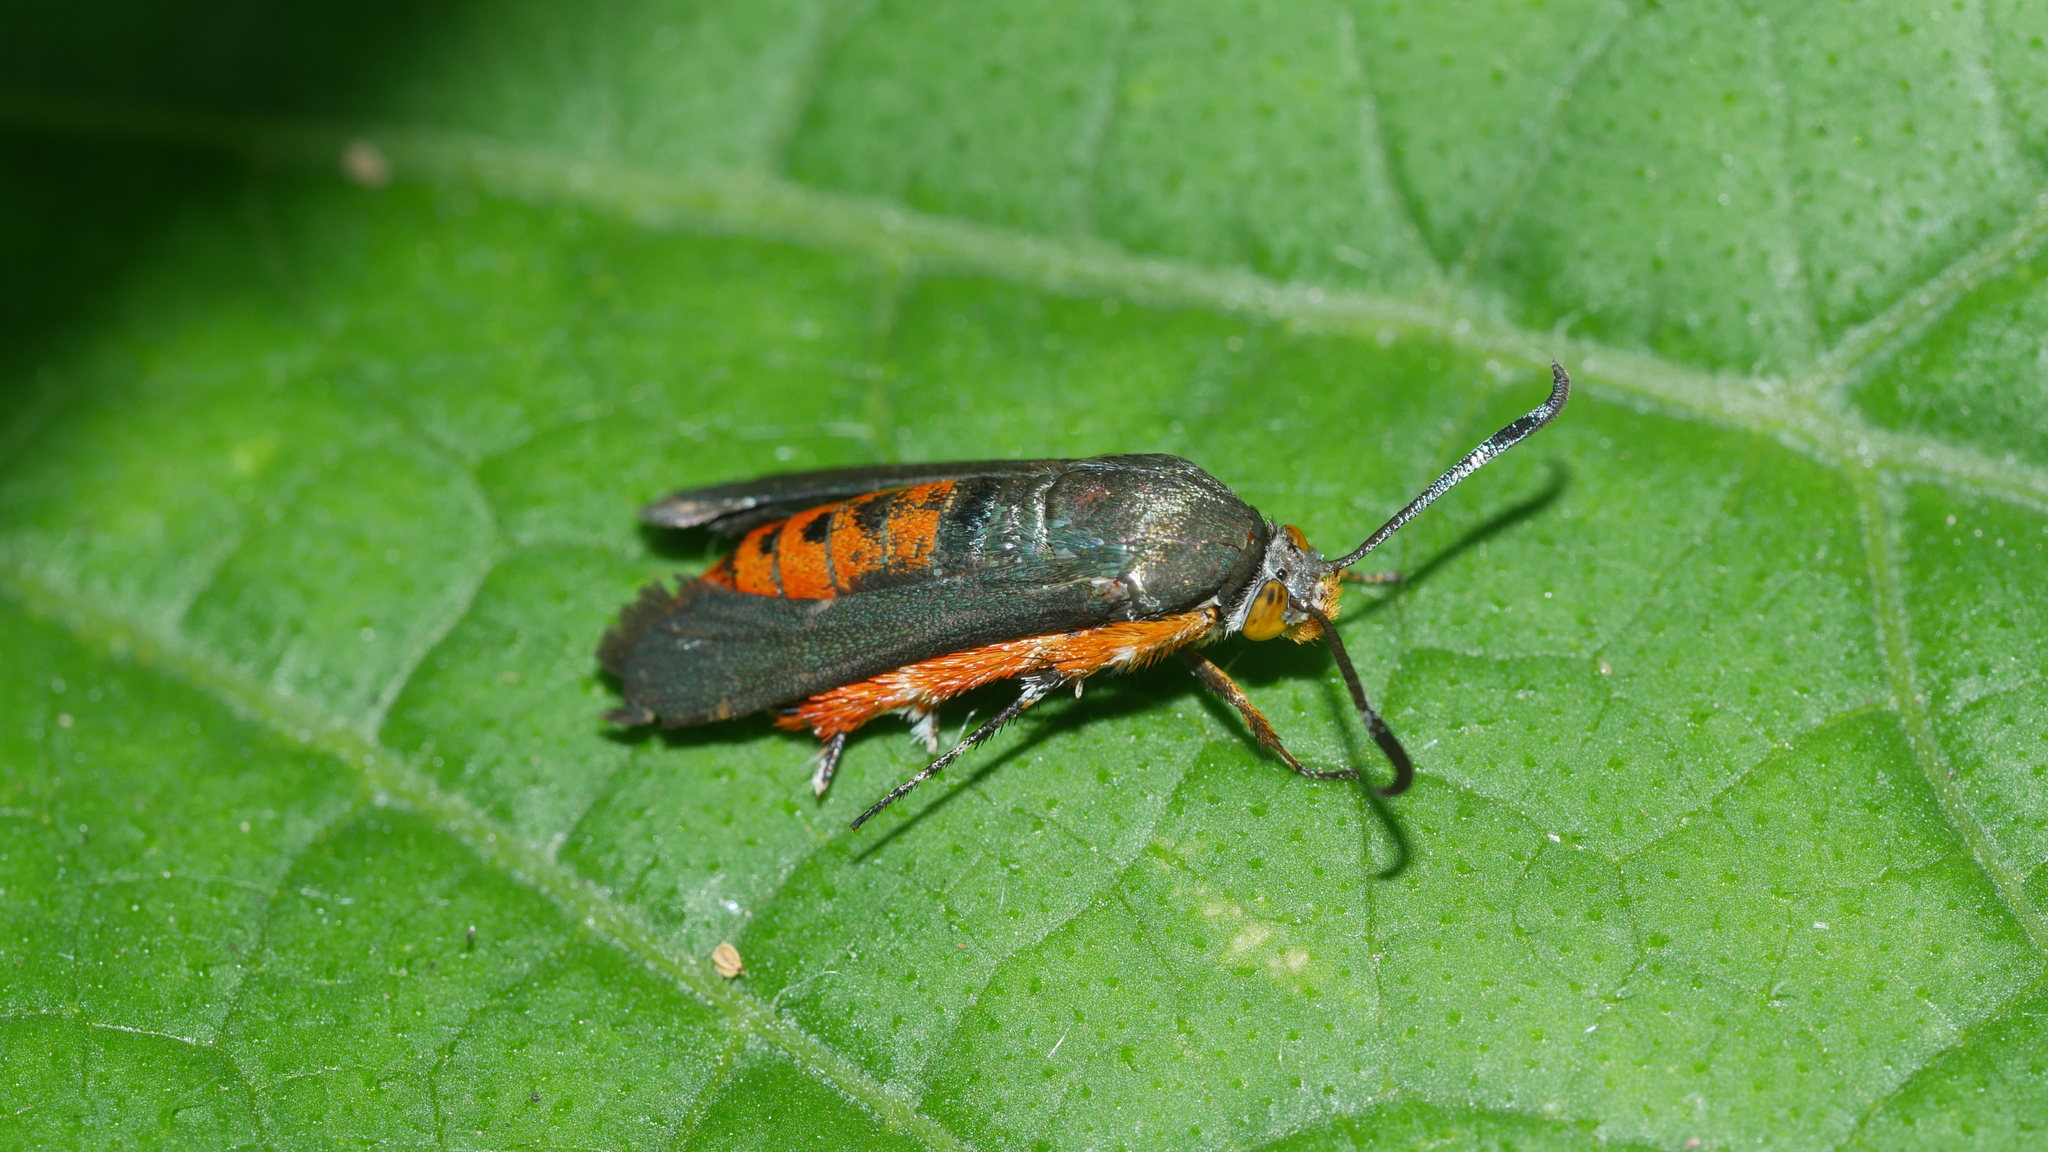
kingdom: Animalia
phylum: Arthropoda
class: Insecta
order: Lepidoptera
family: Sesiidae
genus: Eichlinia
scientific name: Eichlinia cucurbitae
